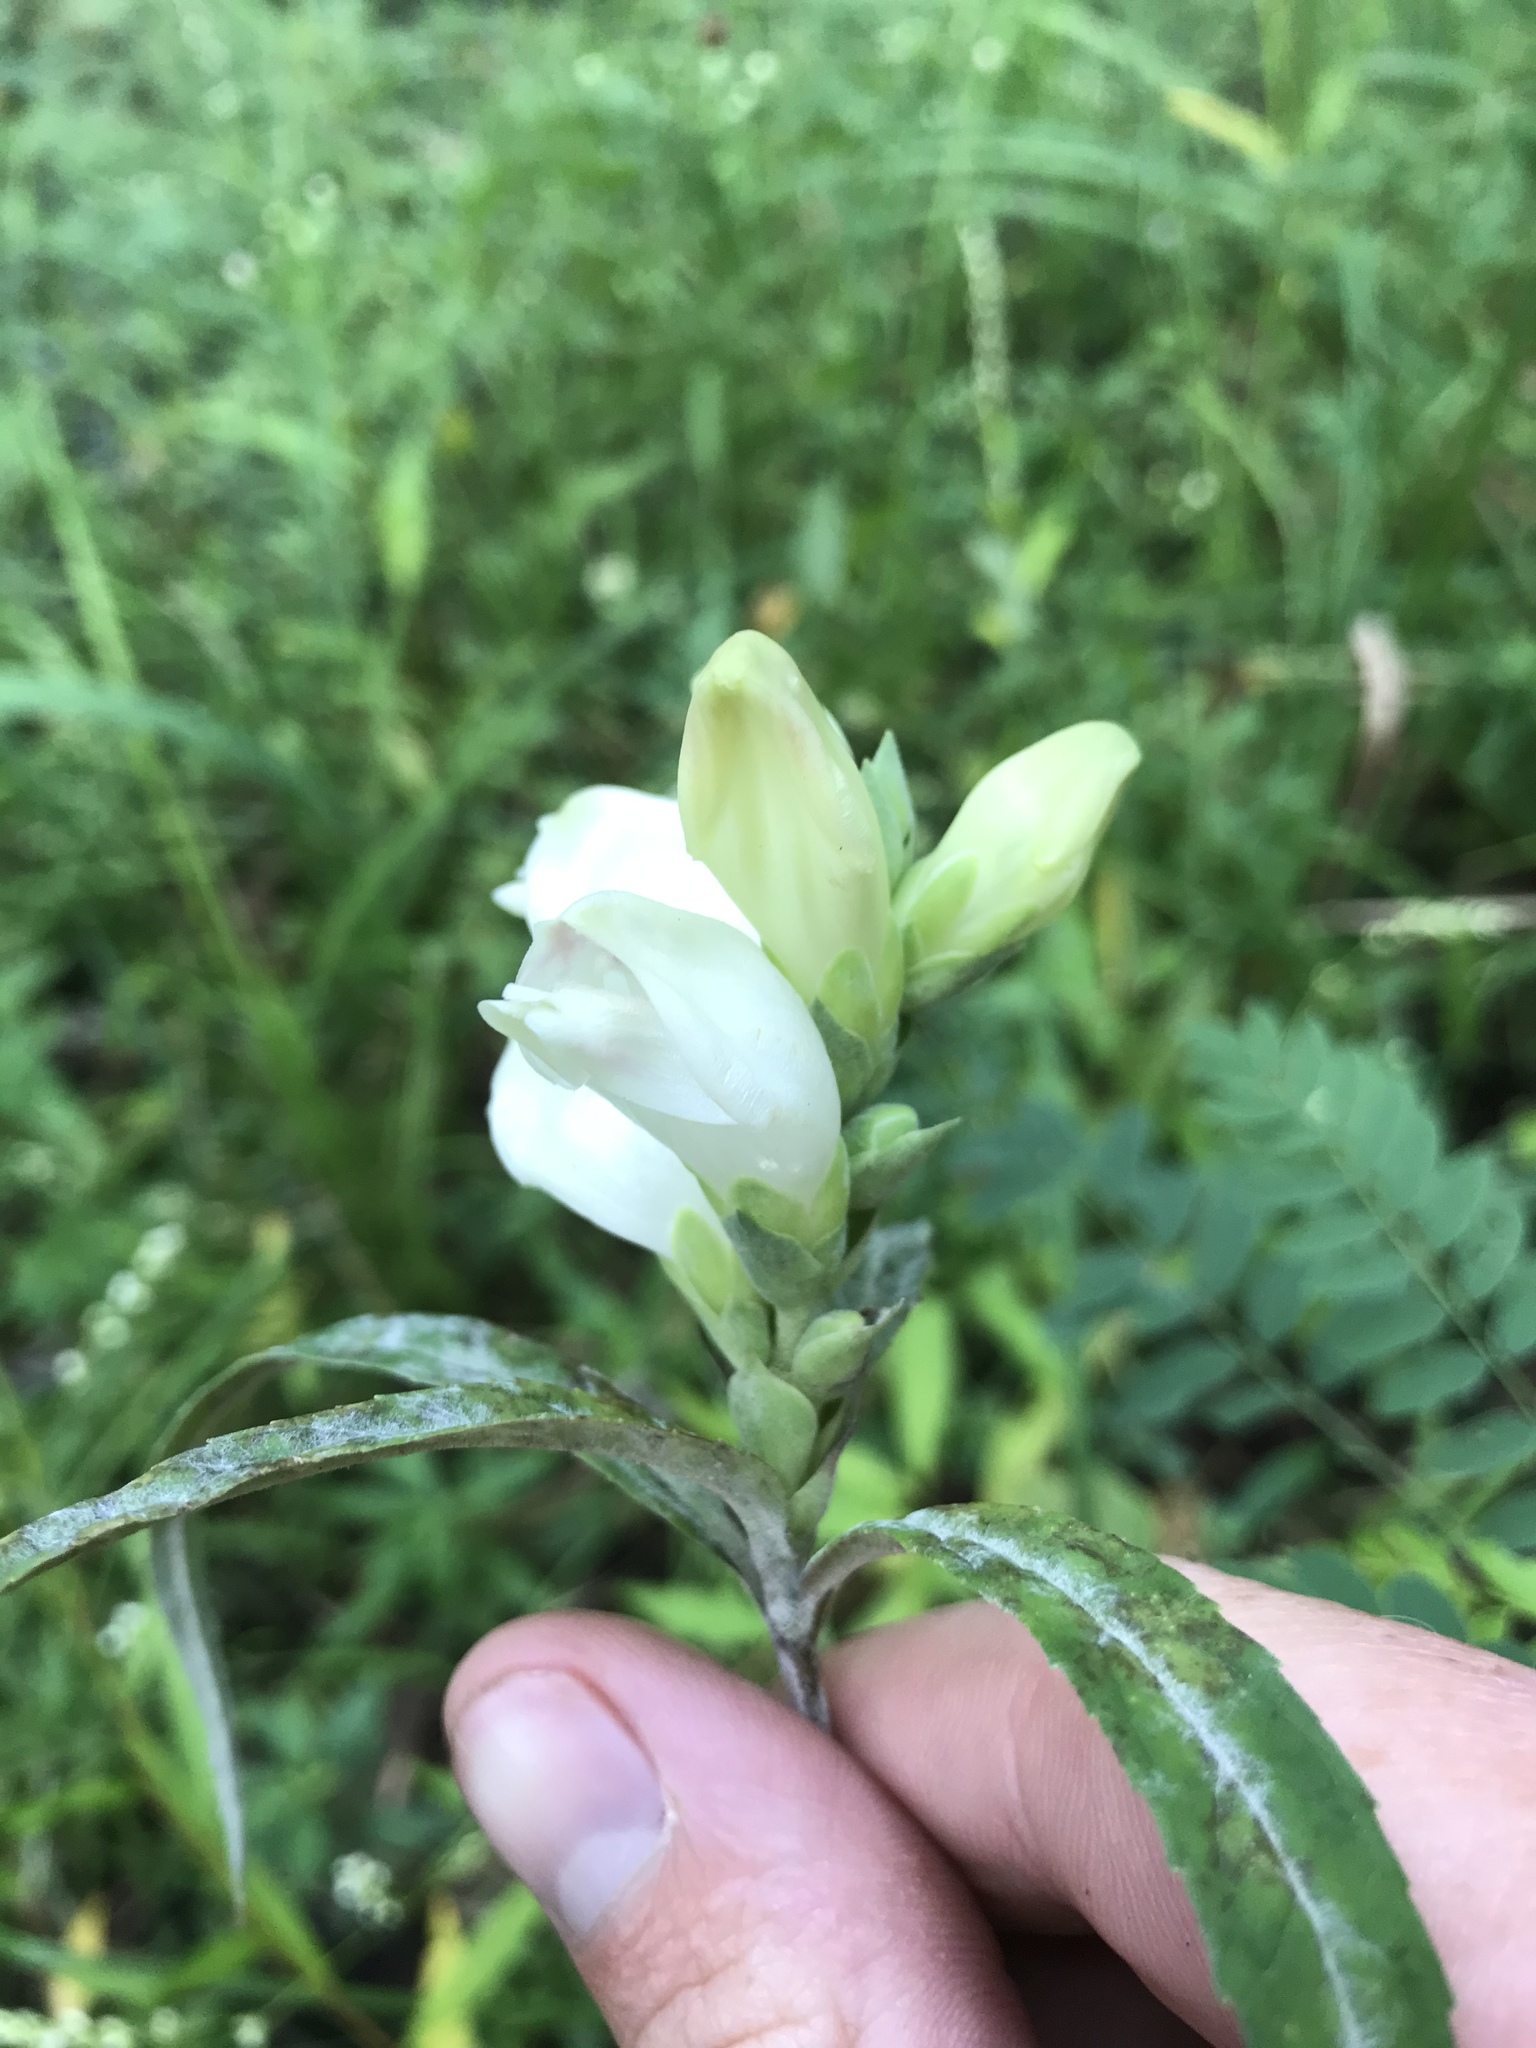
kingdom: Plantae
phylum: Tracheophyta
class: Magnoliopsida
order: Lamiales
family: Plantaginaceae
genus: Chelone
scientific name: Chelone glabra
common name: Snakehead
